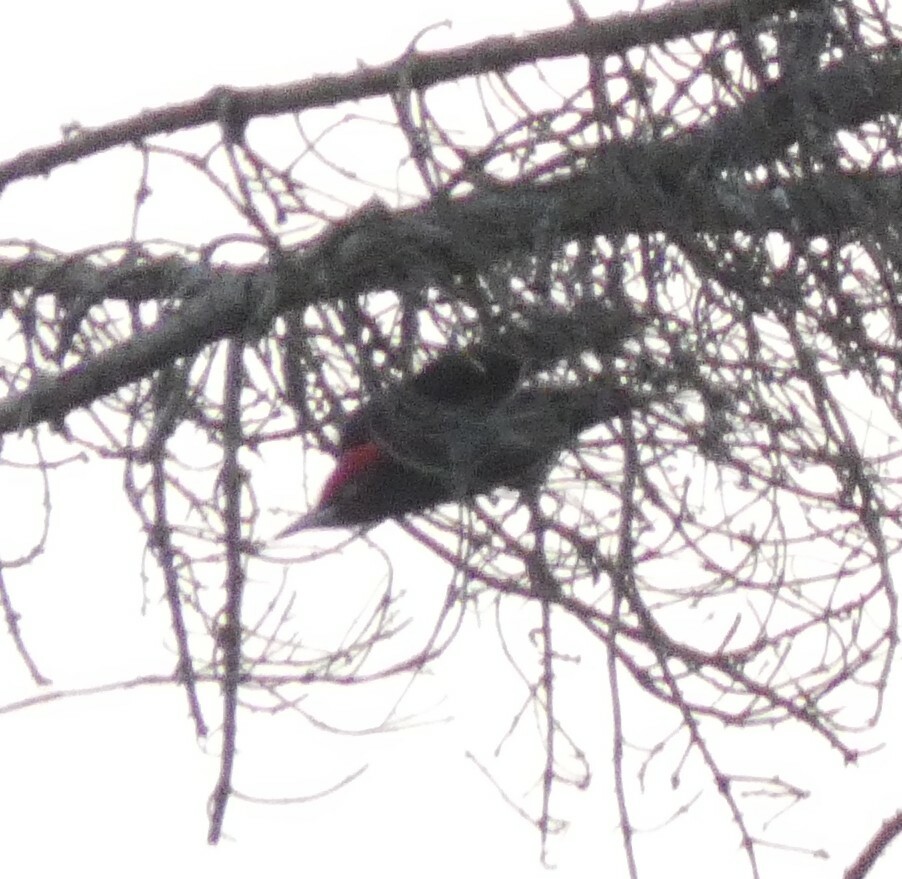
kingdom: Animalia
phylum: Chordata
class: Aves
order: Piciformes
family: Picidae
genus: Dryocopus
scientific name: Dryocopus martius
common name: Black woodpecker
